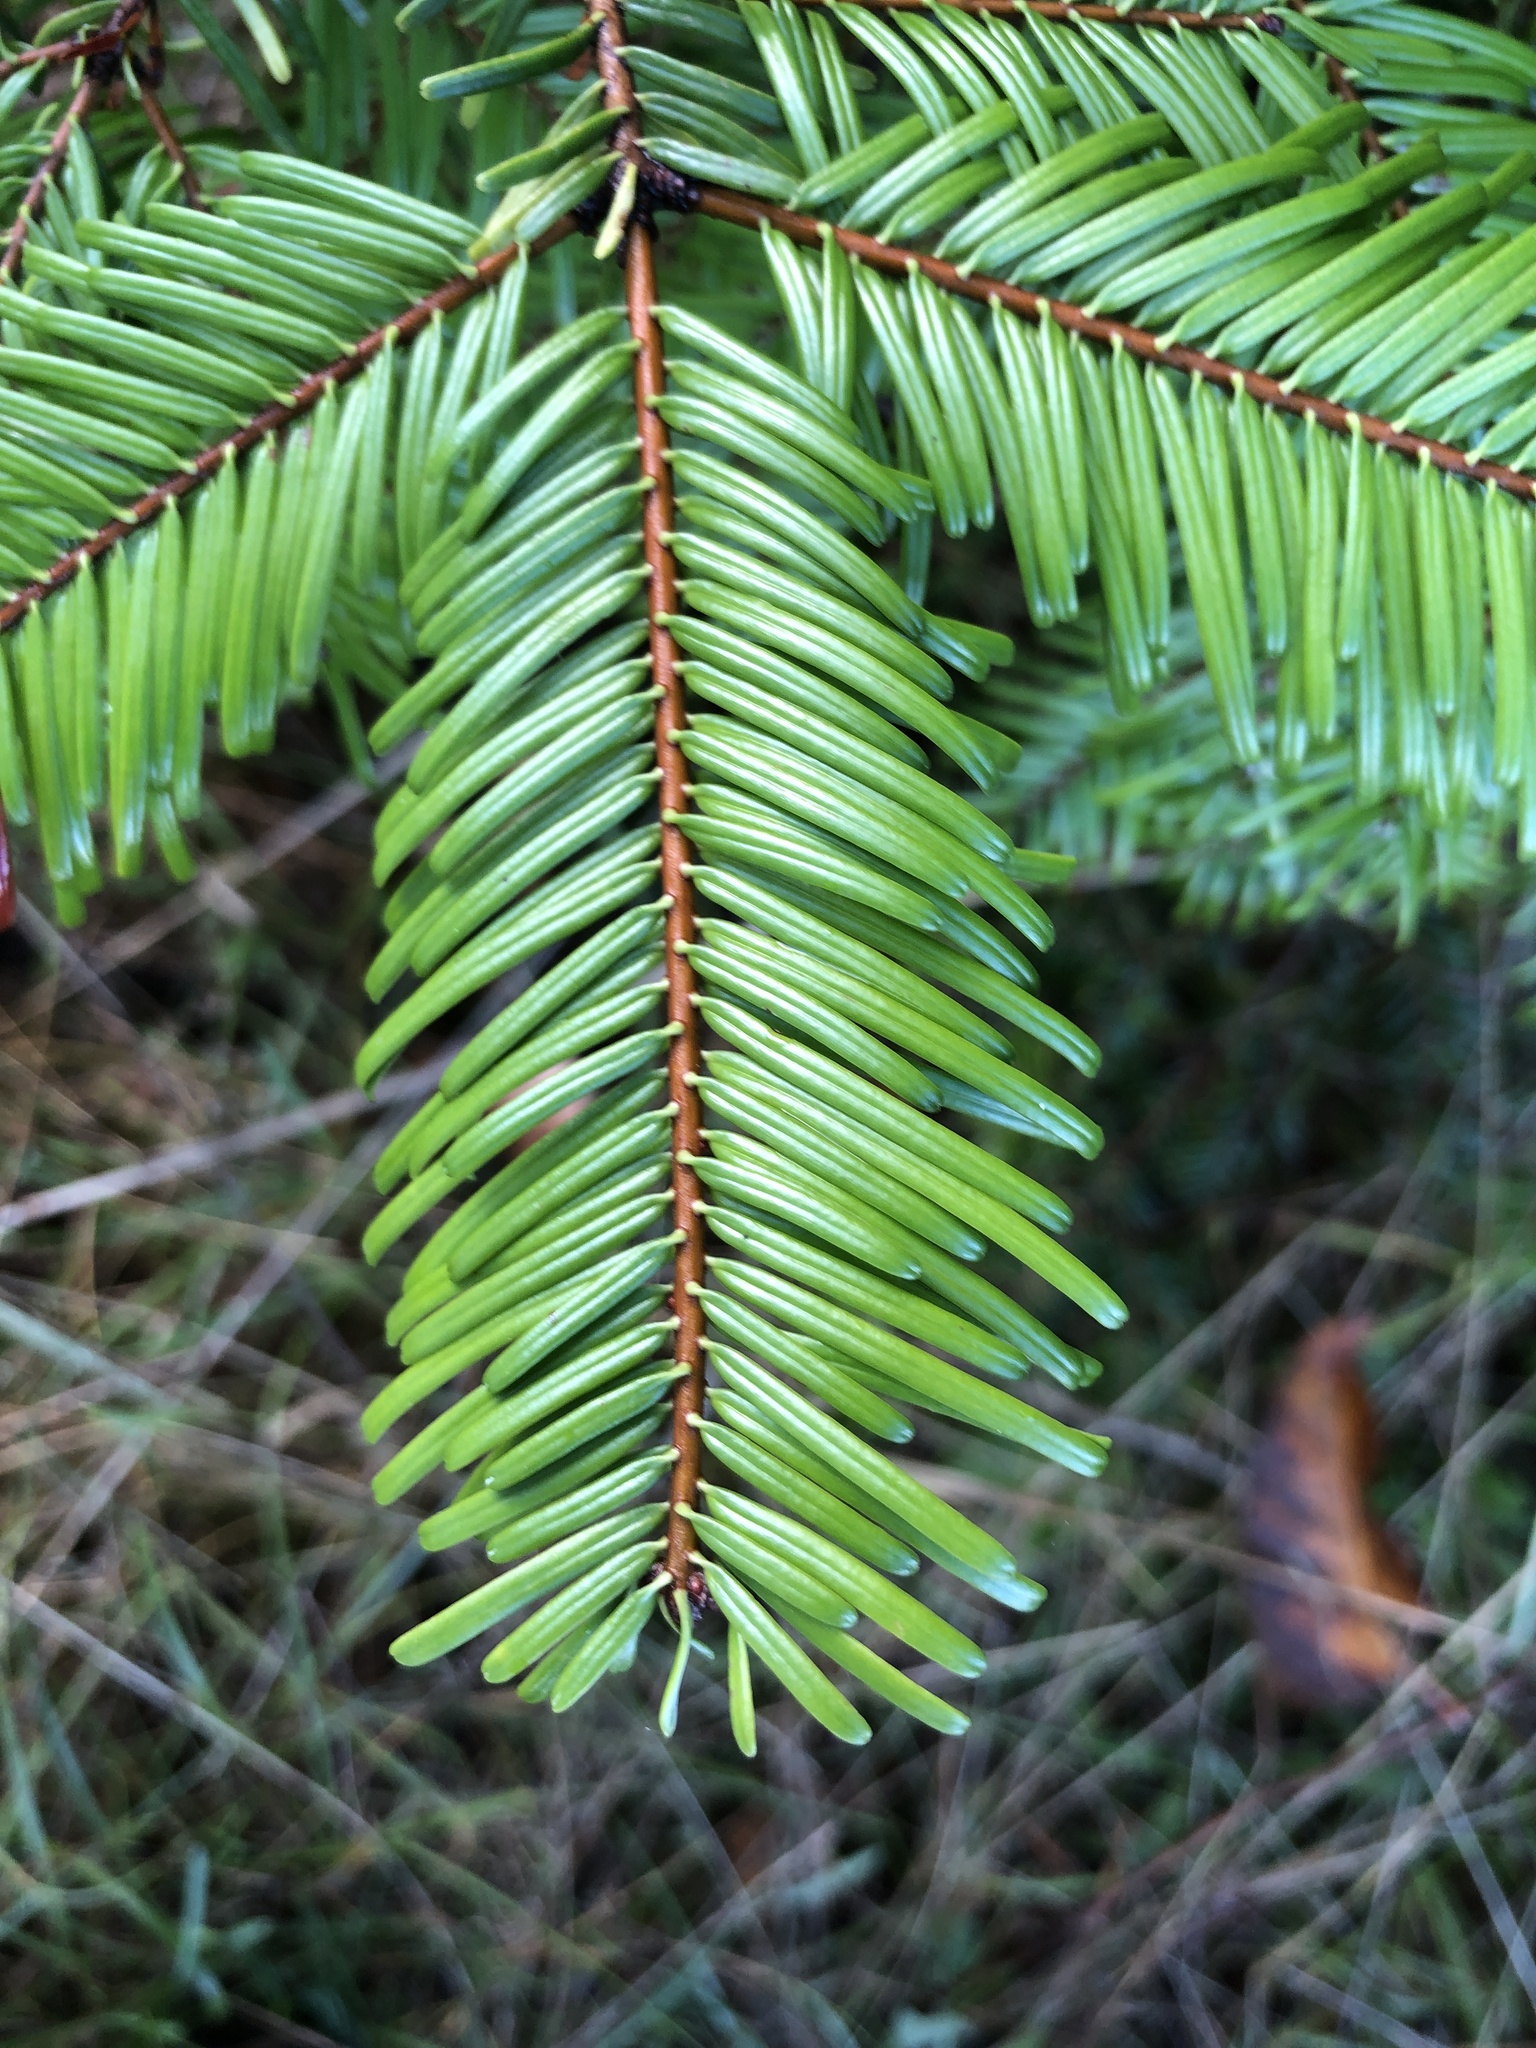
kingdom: Plantae
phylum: Tracheophyta
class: Pinopsida
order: Pinales
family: Pinaceae
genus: Abies
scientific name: Abies grandis
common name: Giant fir
